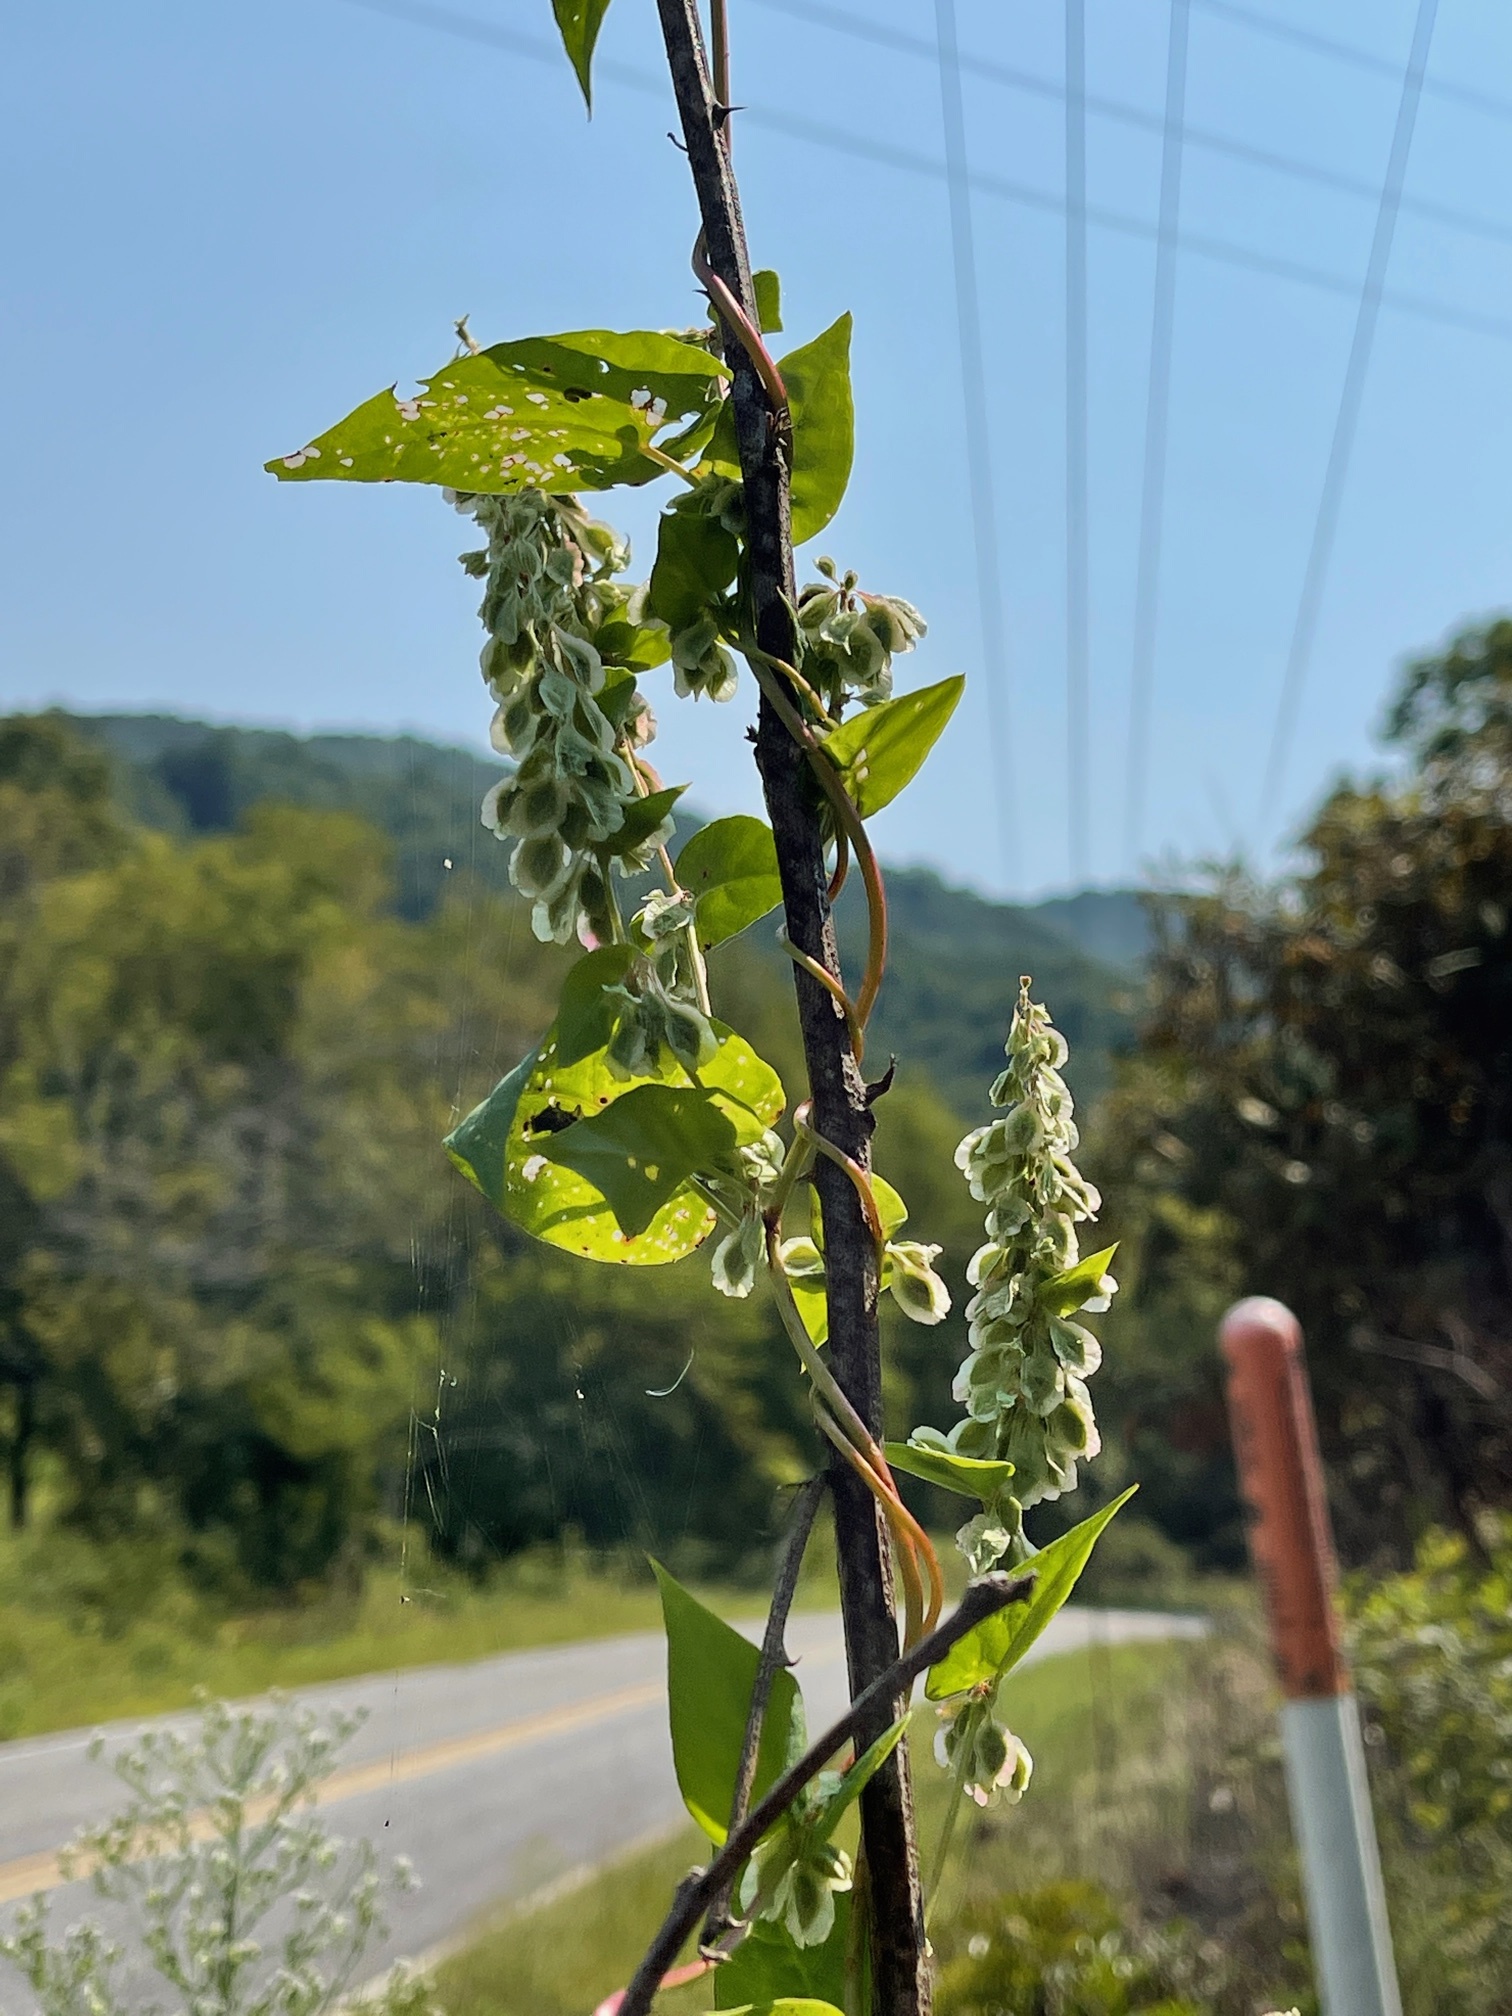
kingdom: Plantae
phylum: Tracheophyta
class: Magnoliopsida
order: Caryophyllales
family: Polygonaceae
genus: Fallopia
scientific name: Fallopia scandens
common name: Climbing false buckwheat
